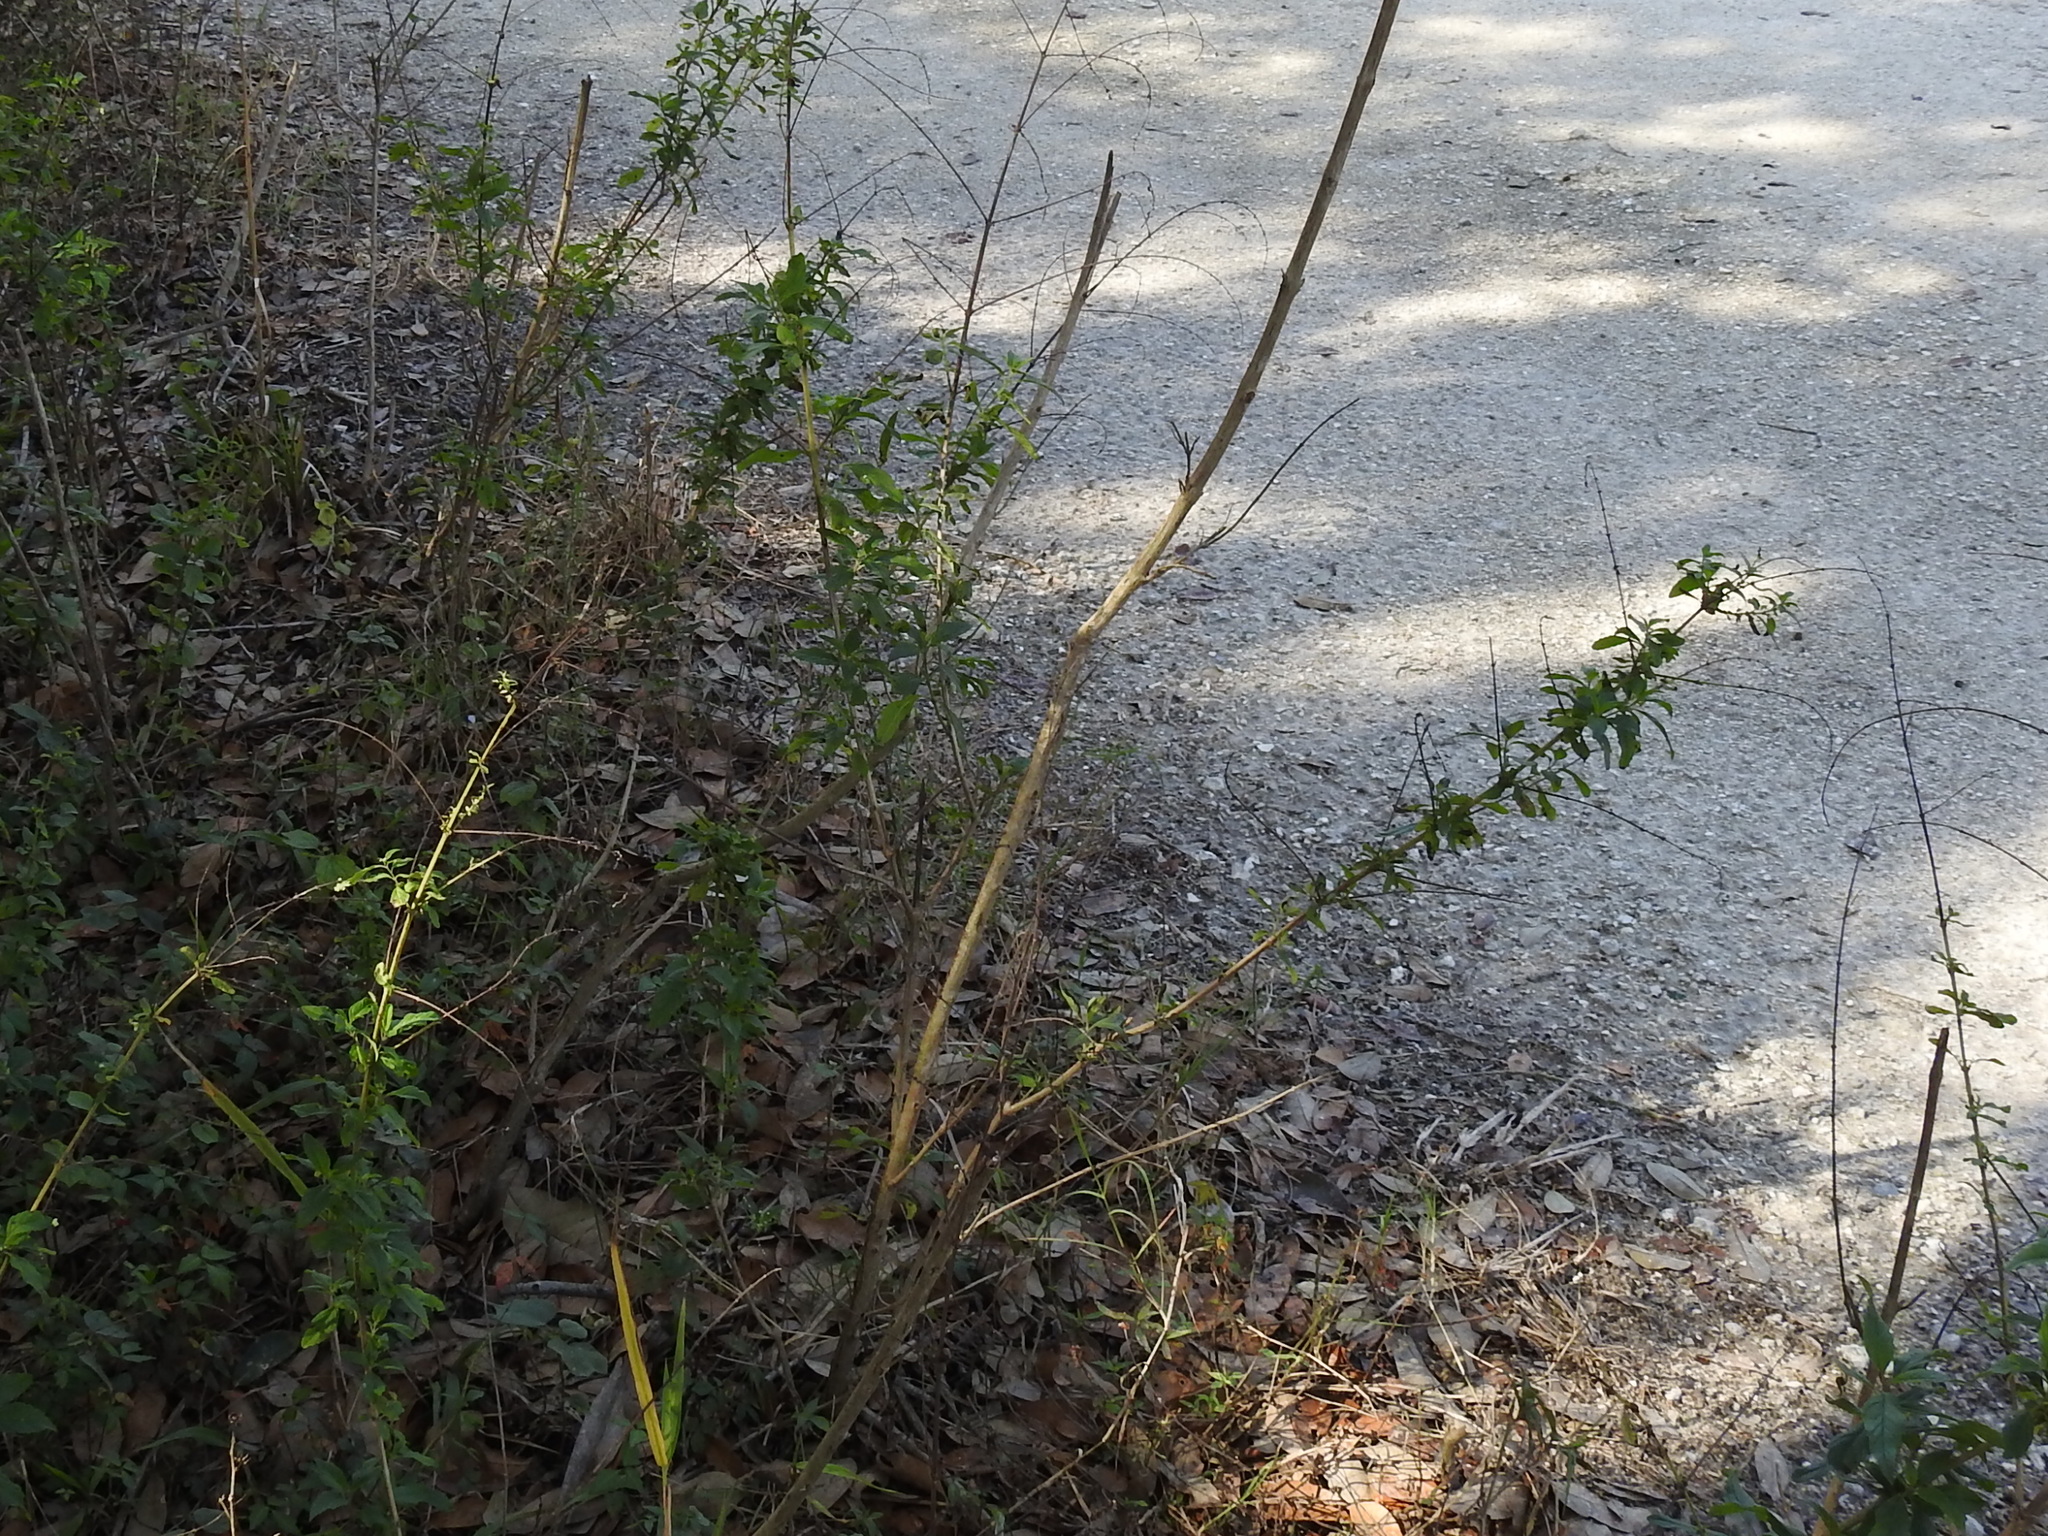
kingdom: Plantae
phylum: Tracheophyta
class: Magnoliopsida
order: Lamiales
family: Lamiaceae
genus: Condea
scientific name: Condea verticillata
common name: John charles
